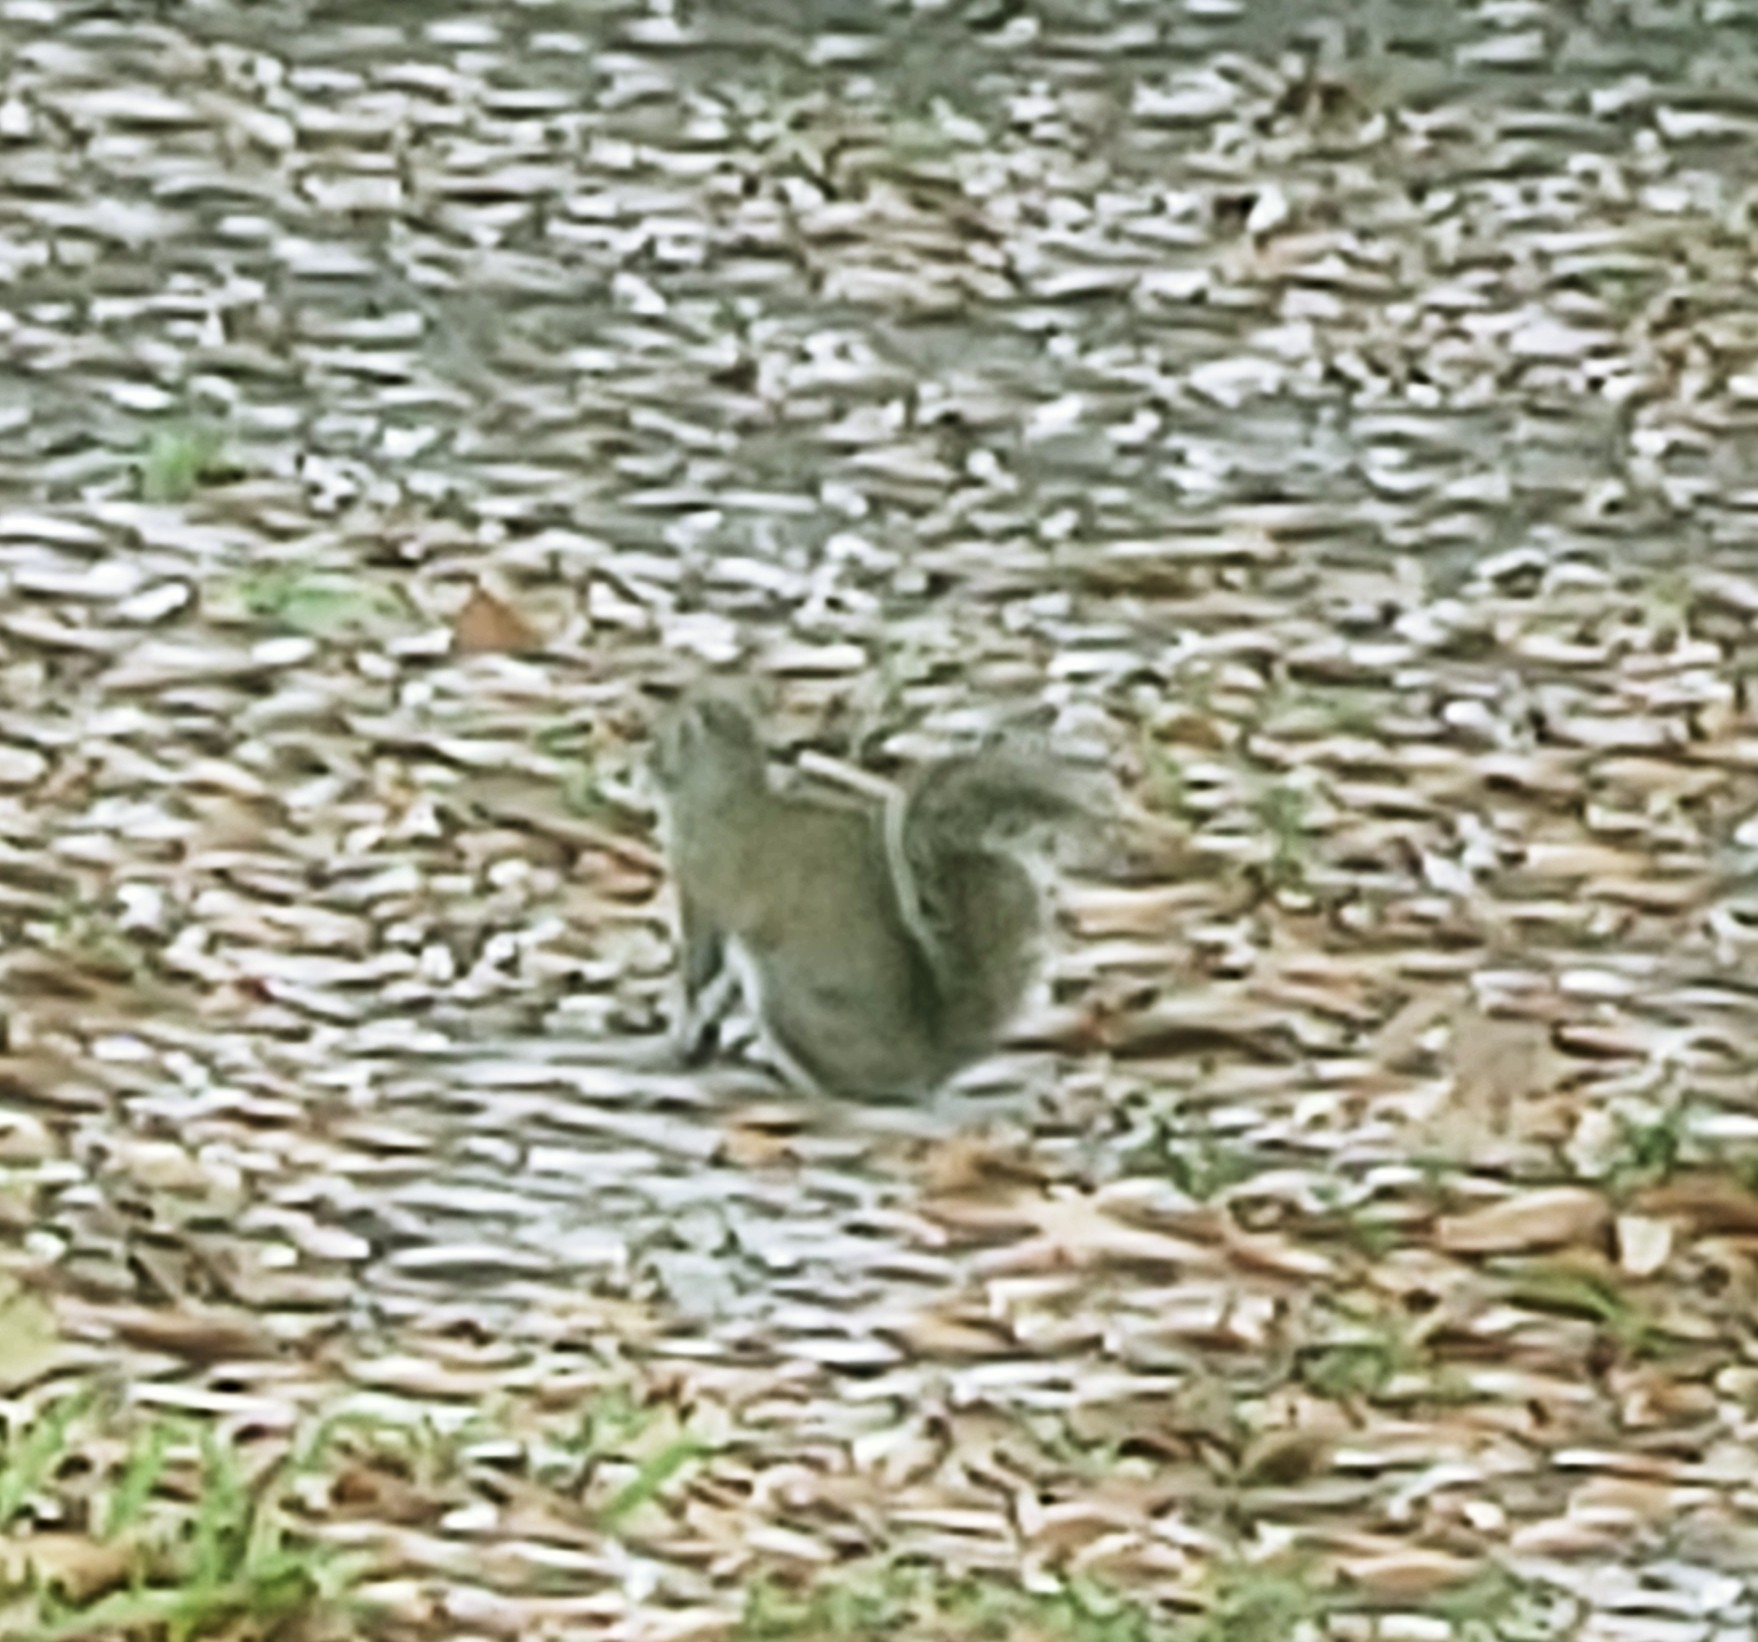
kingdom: Animalia
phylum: Chordata
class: Mammalia
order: Rodentia
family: Sciuridae
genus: Sciurus
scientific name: Sciurus carolinensis
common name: Eastern gray squirrel
